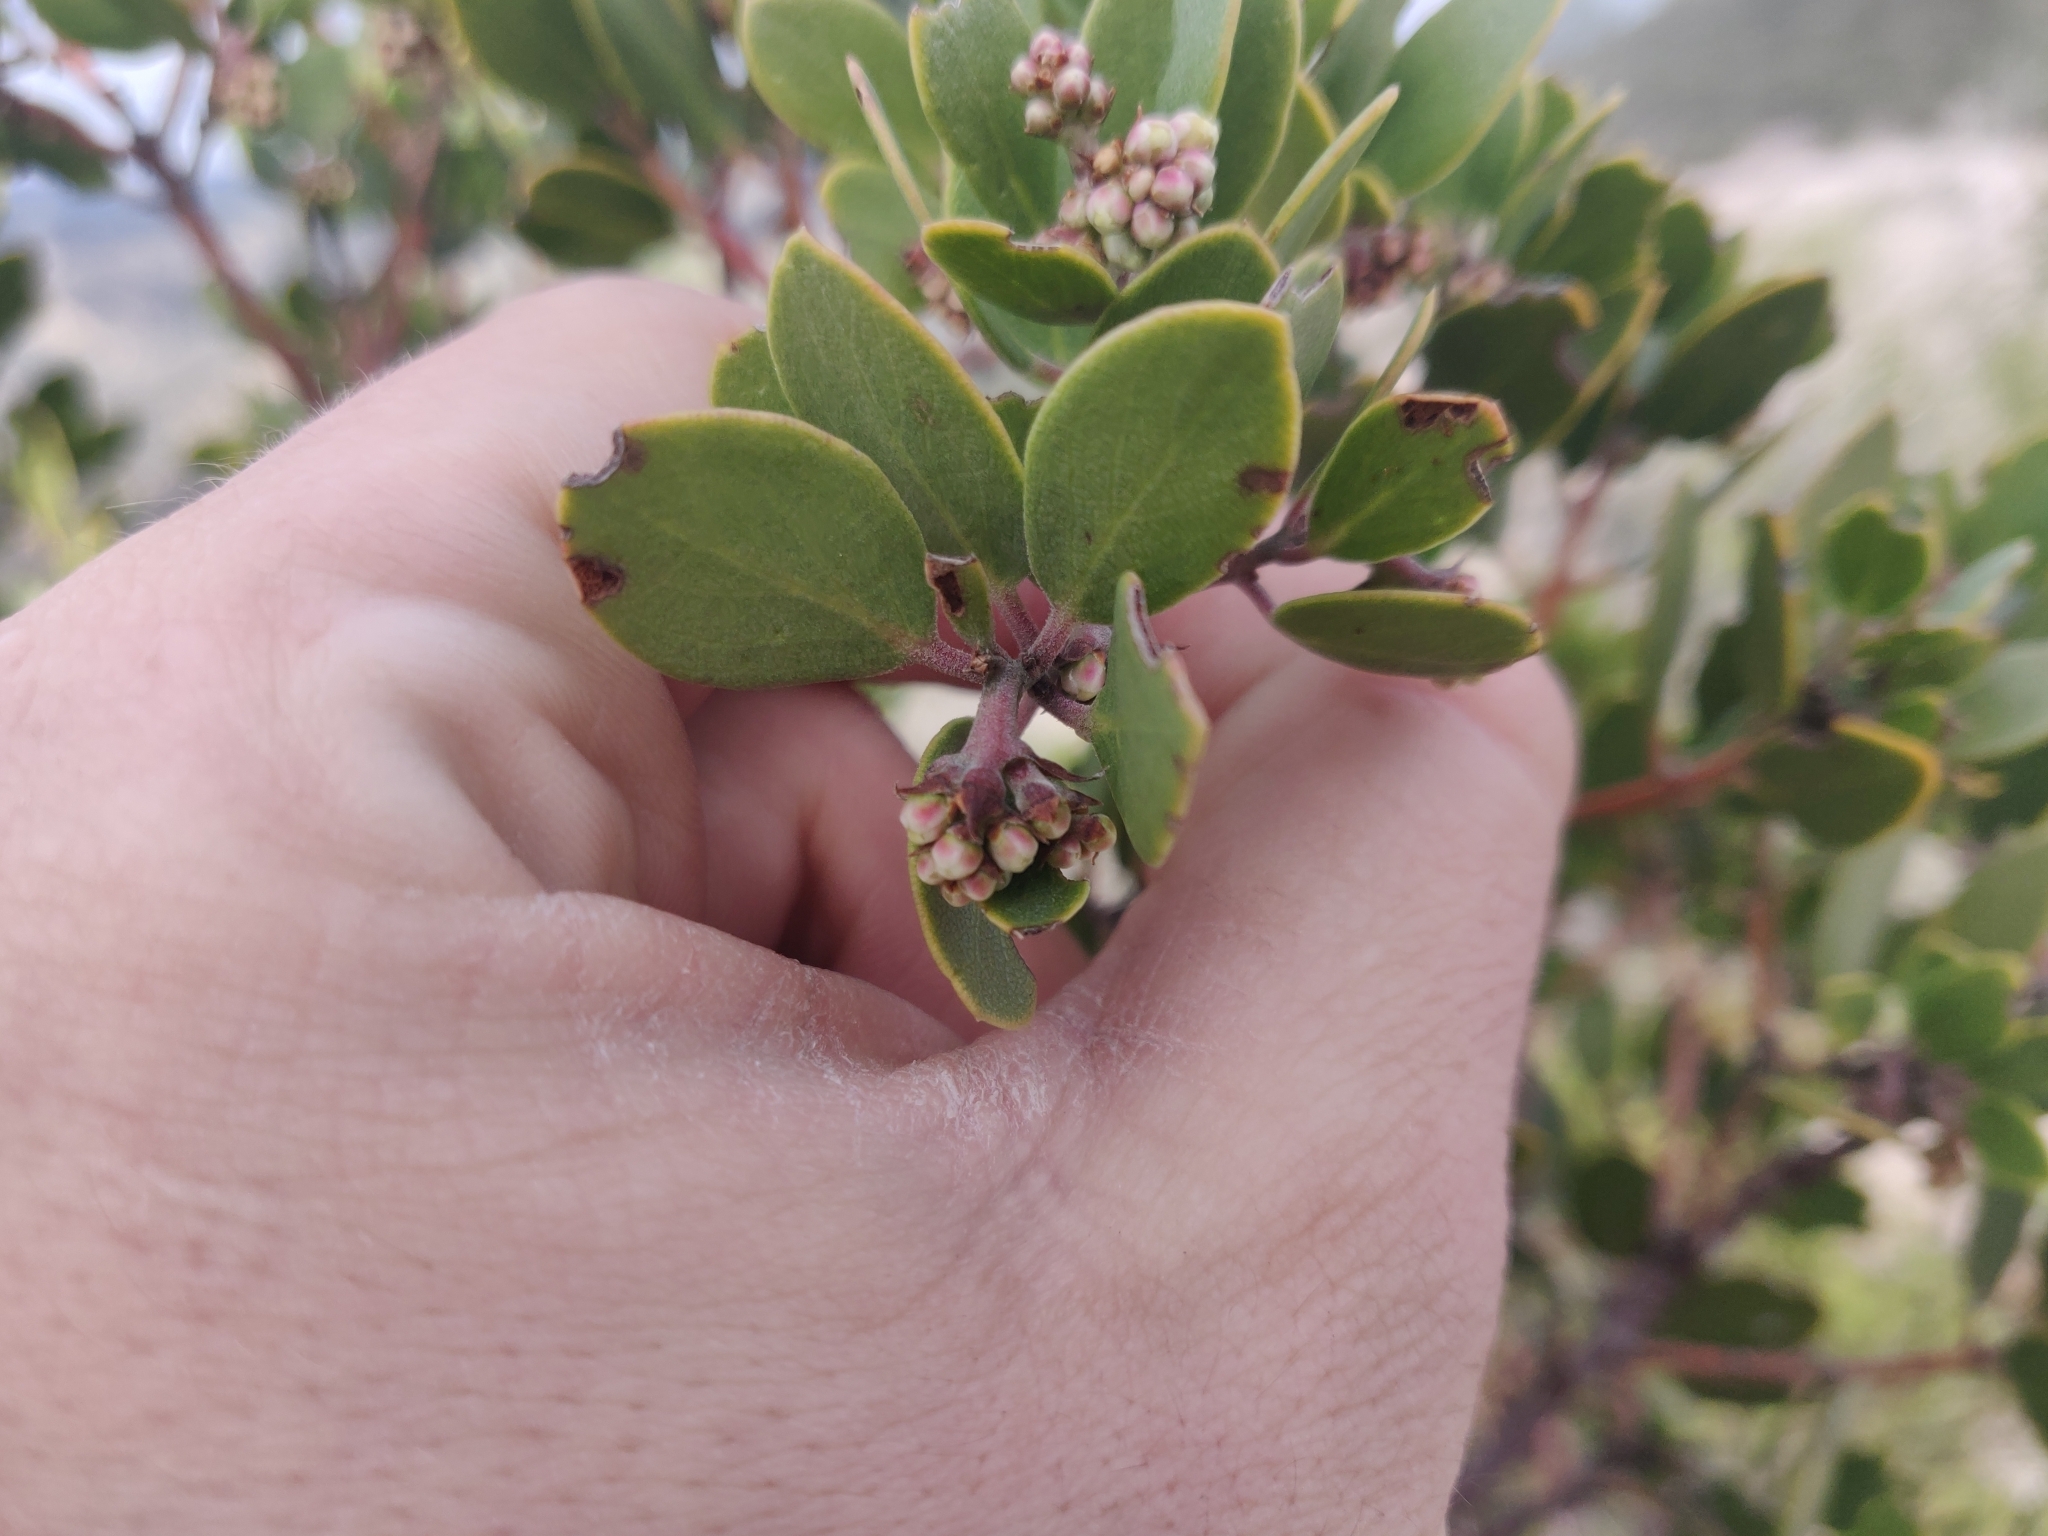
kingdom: Plantae
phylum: Tracheophyta
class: Magnoliopsida
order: Ericales
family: Ericaceae
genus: Arctostaphylos
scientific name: Arctostaphylos pungens
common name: Mexican manzanita
